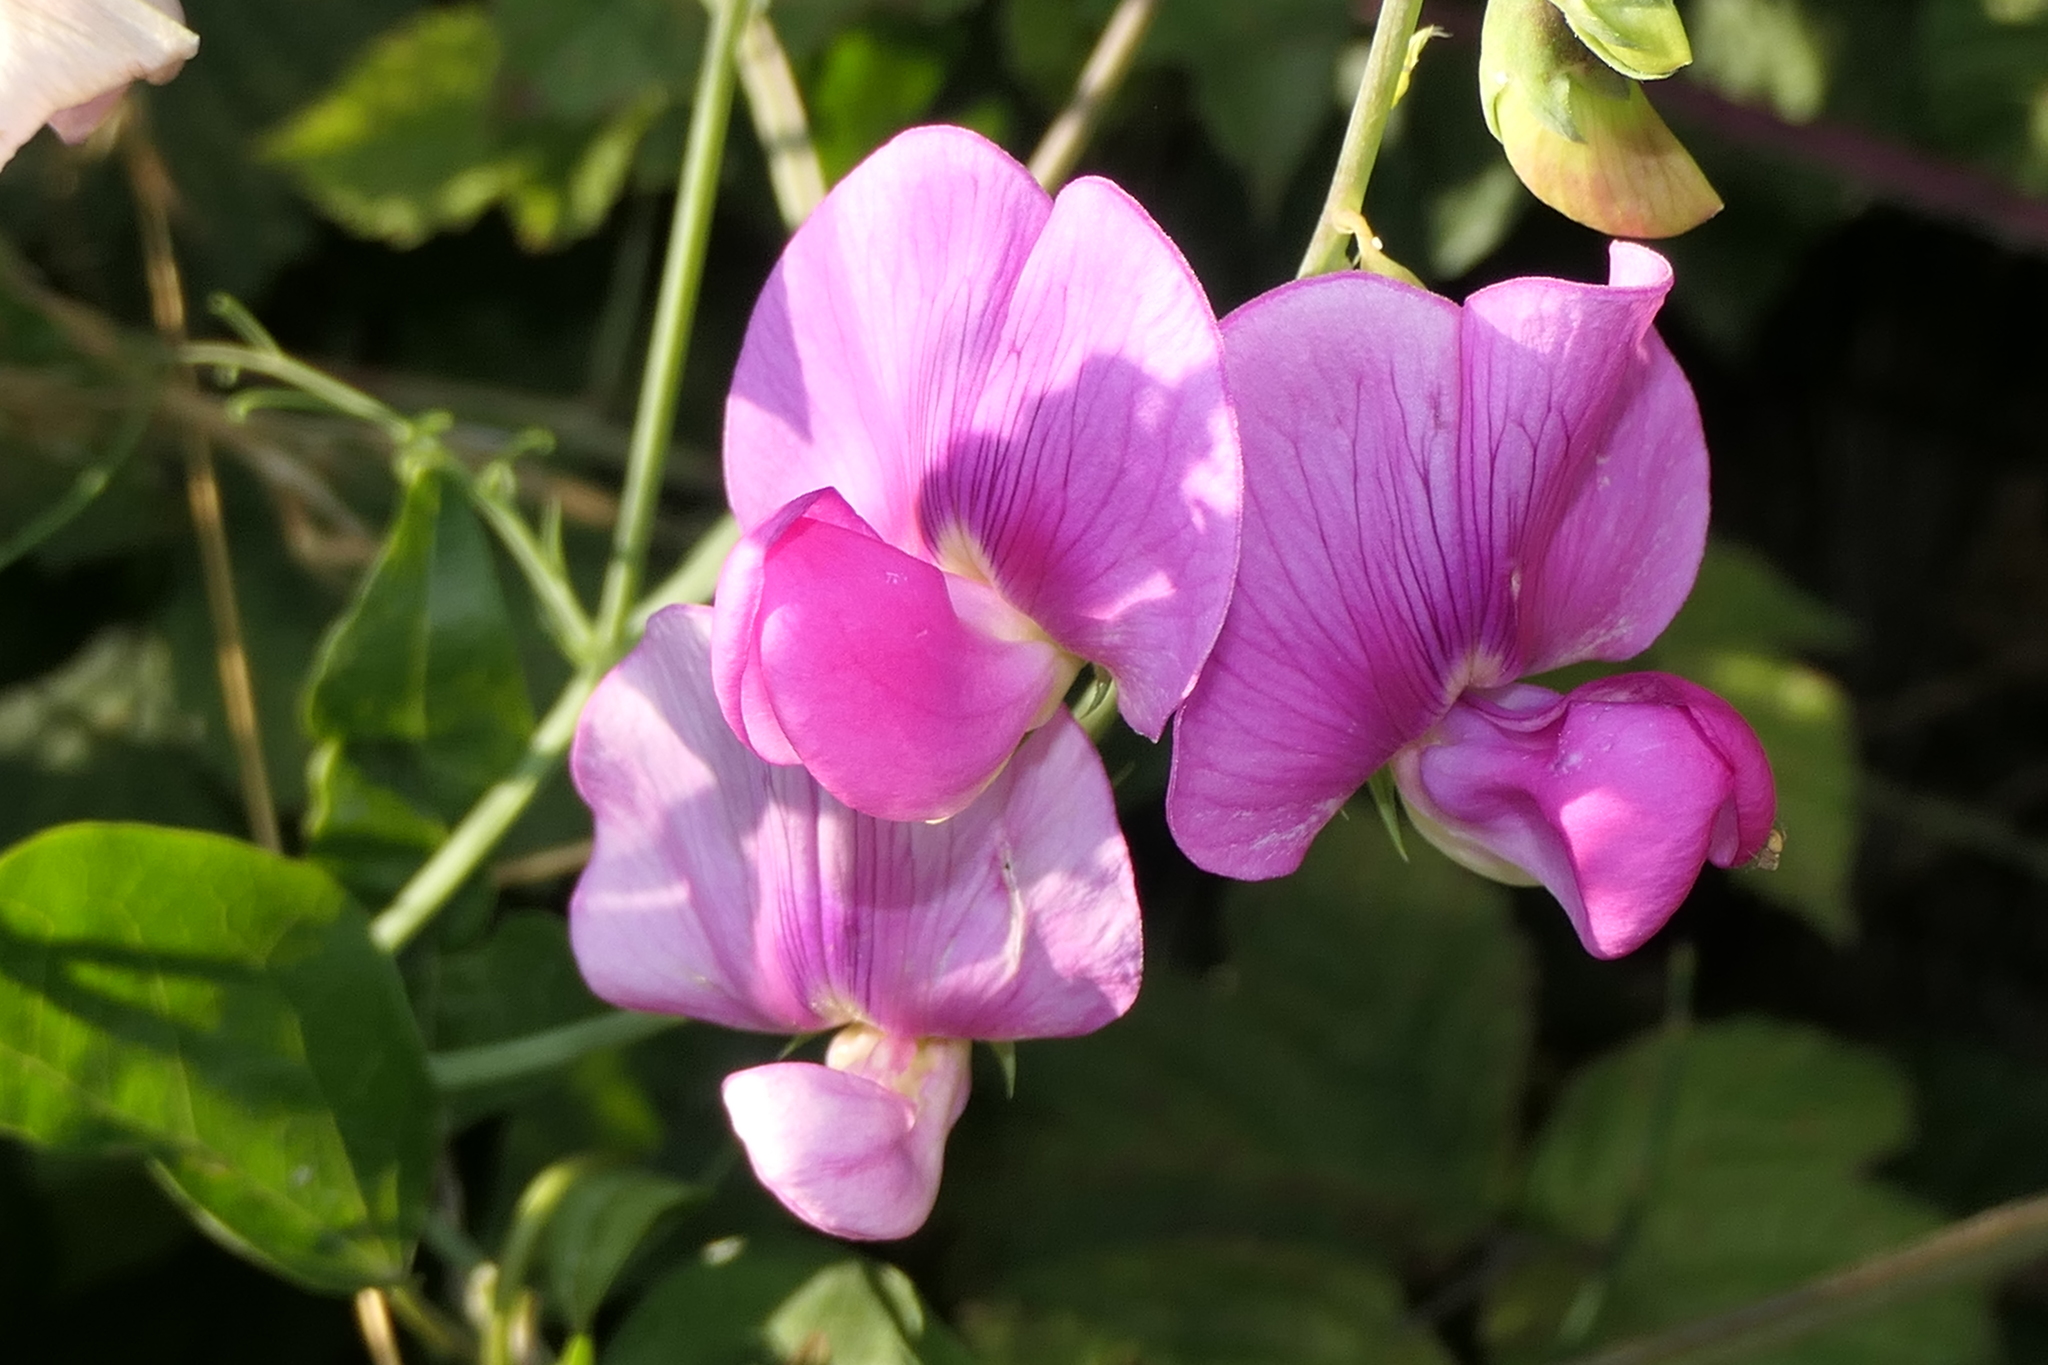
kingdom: Plantae
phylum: Tracheophyta
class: Magnoliopsida
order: Fabales
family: Fabaceae
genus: Lathyrus
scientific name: Lathyrus latifolius
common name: Perennial pea
